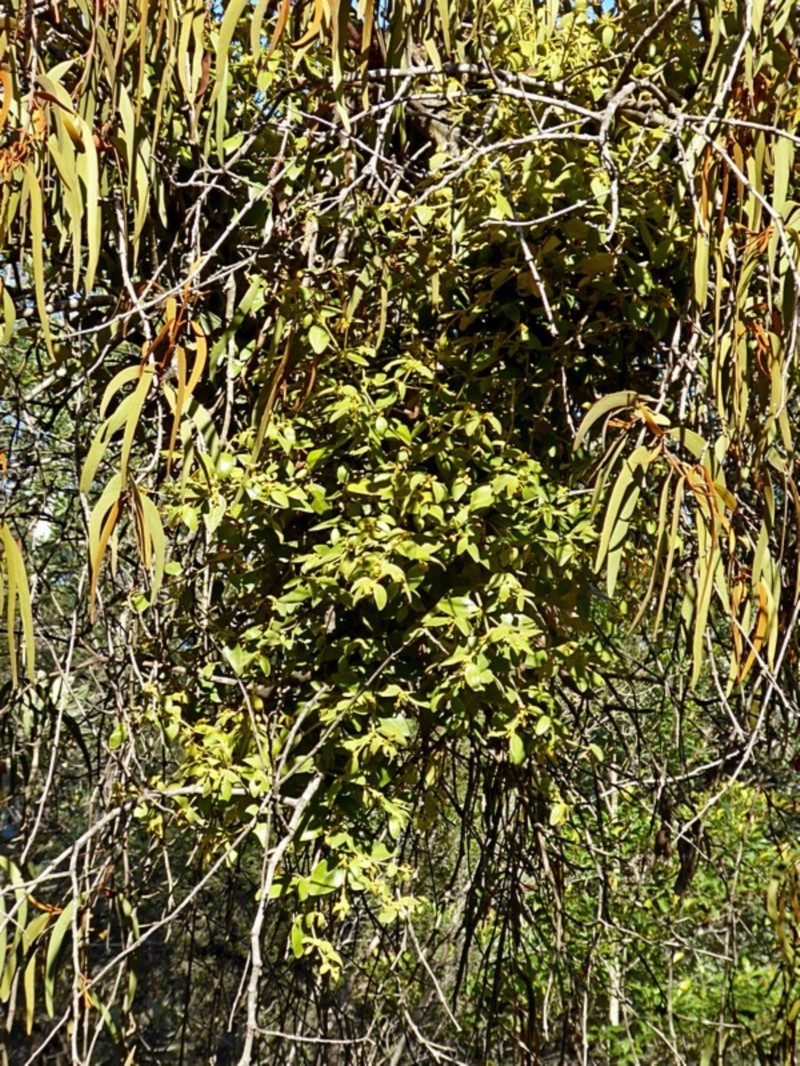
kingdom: Plantae
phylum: Tracheophyta
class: Magnoliopsida
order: Santalales
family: Viscaceae
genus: Notothixos
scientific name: Notothixos subaureus
